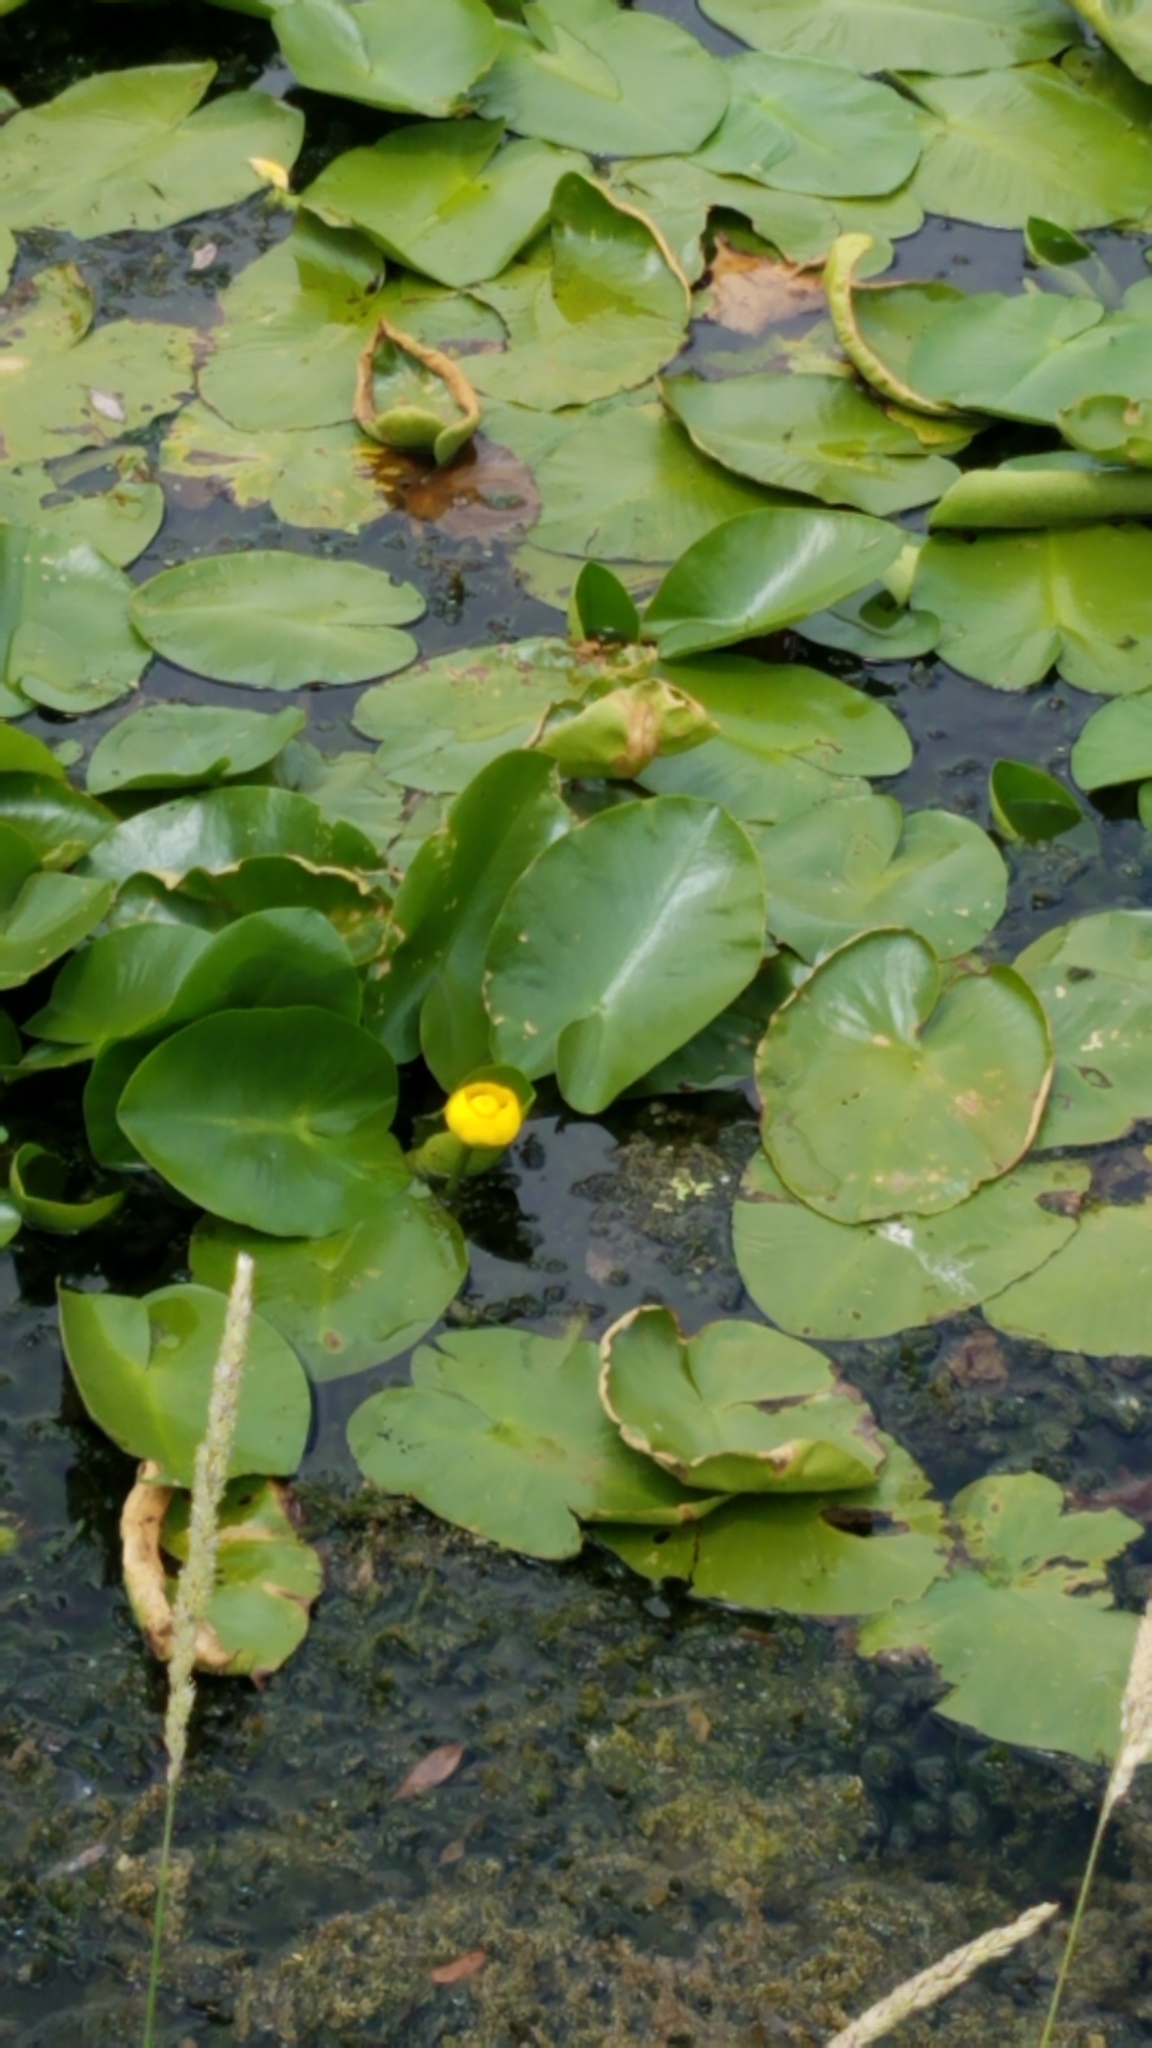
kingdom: Plantae
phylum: Tracheophyta
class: Magnoliopsida
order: Nymphaeales
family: Nymphaeaceae
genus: Nuphar
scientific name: Nuphar variegata
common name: Beaver-root
